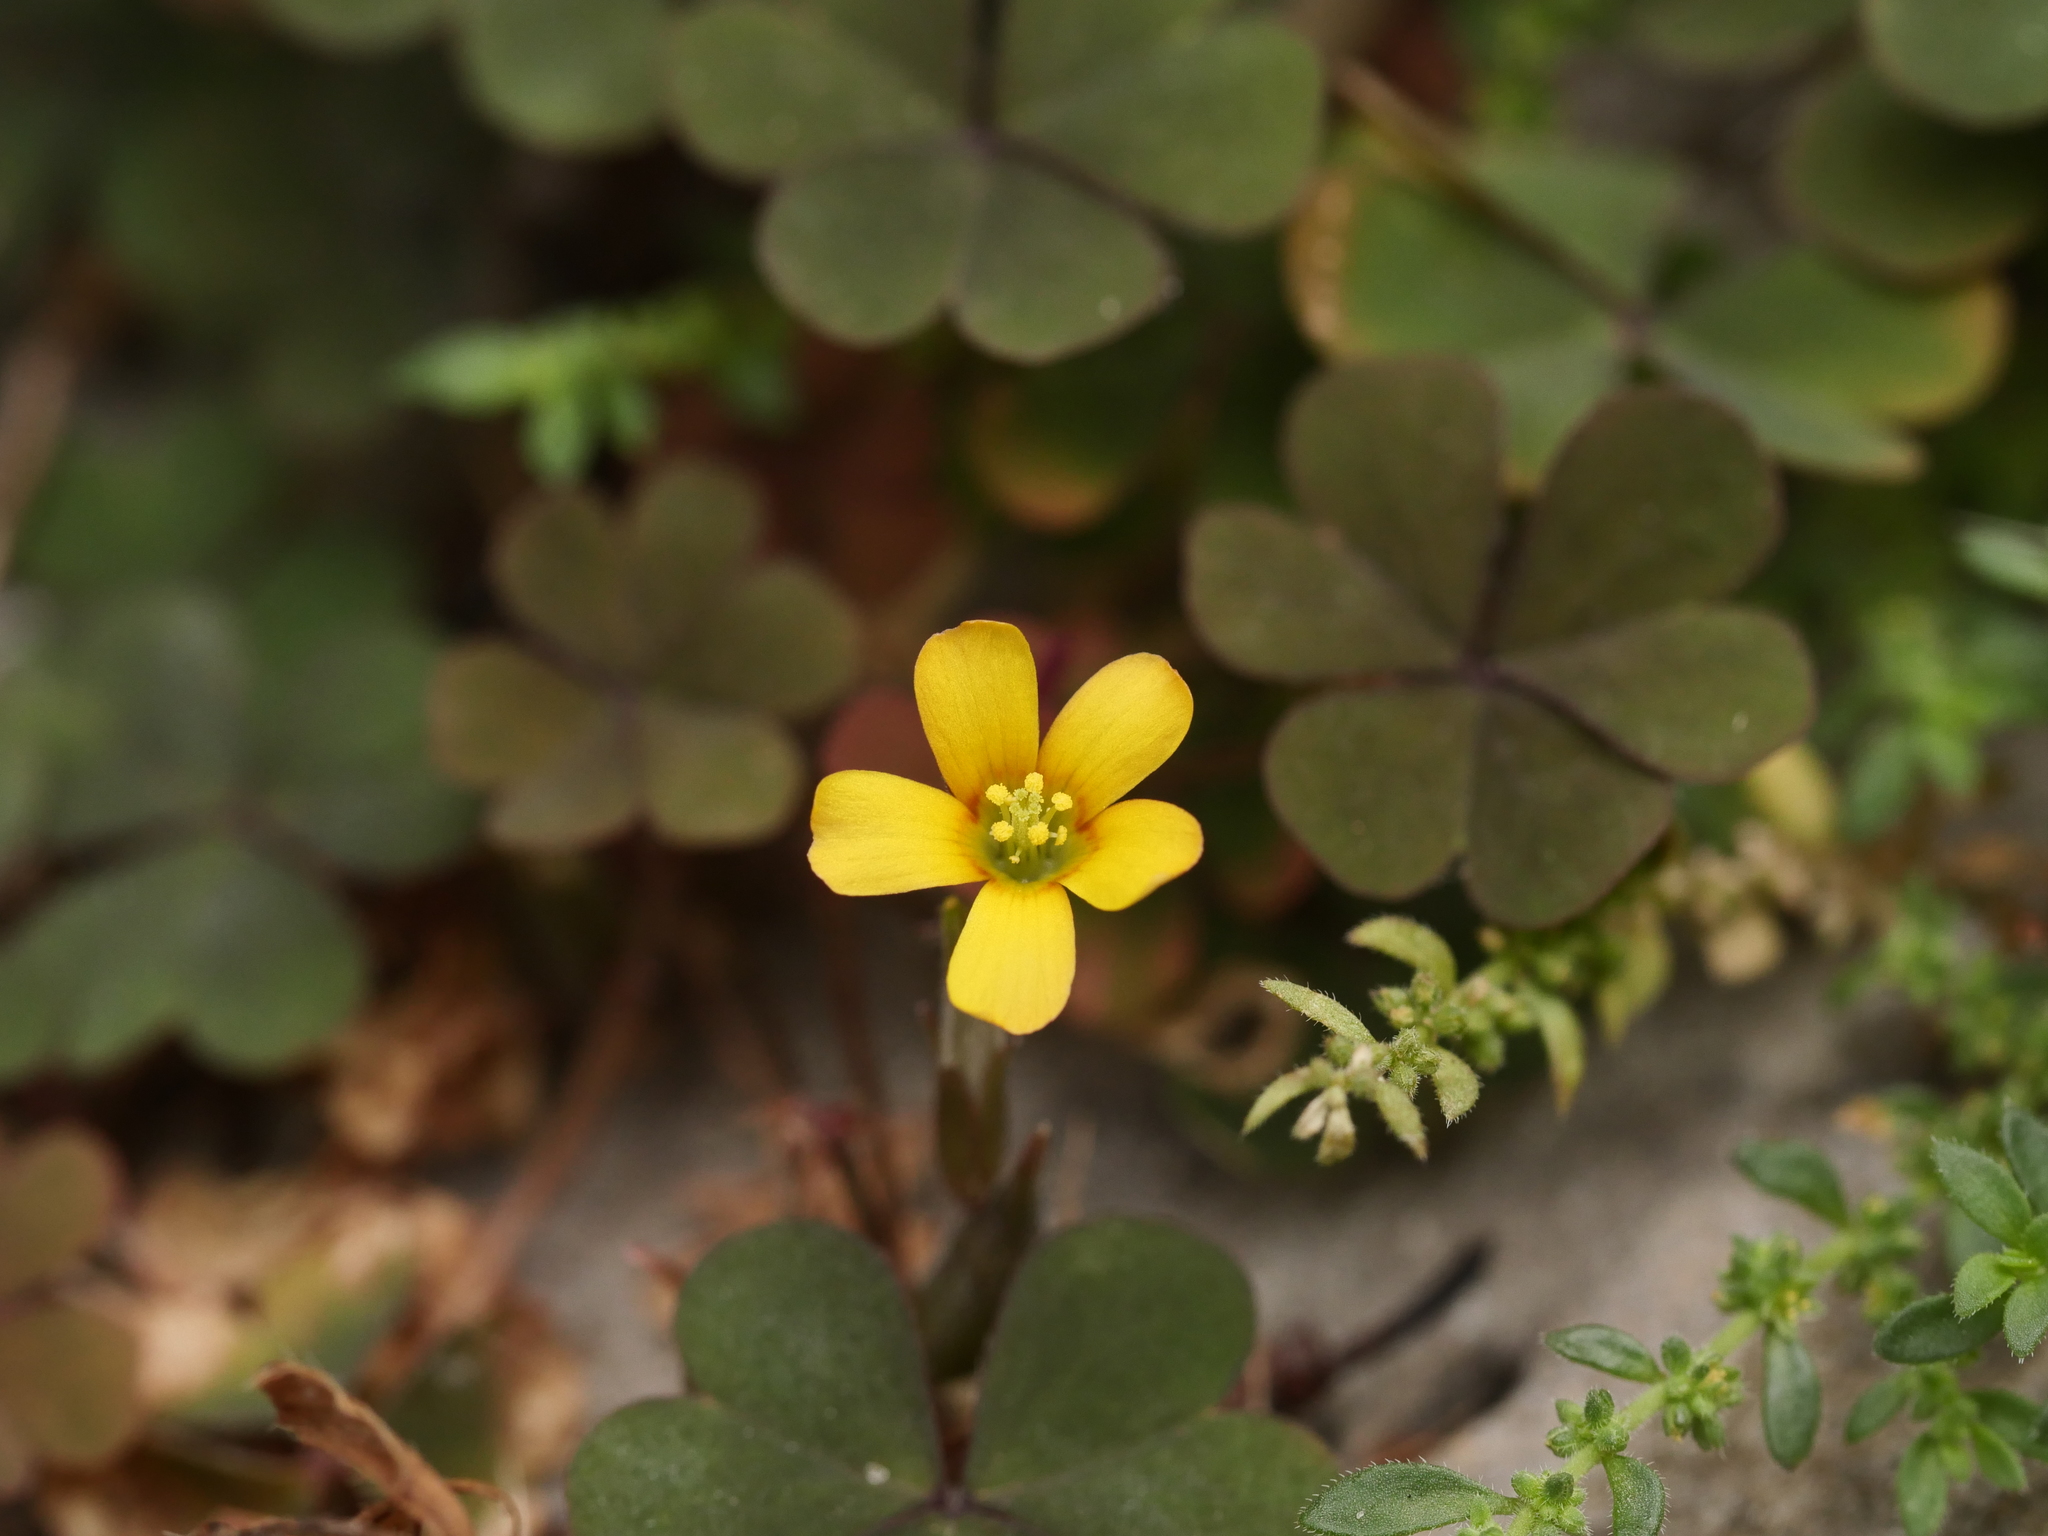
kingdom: Plantae
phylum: Tracheophyta
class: Magnoliopsida
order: Oxalidales
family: Oxalidaceae
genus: Oxalis
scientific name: Oxalis corniculata
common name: Procumbent yellow-sorrel
